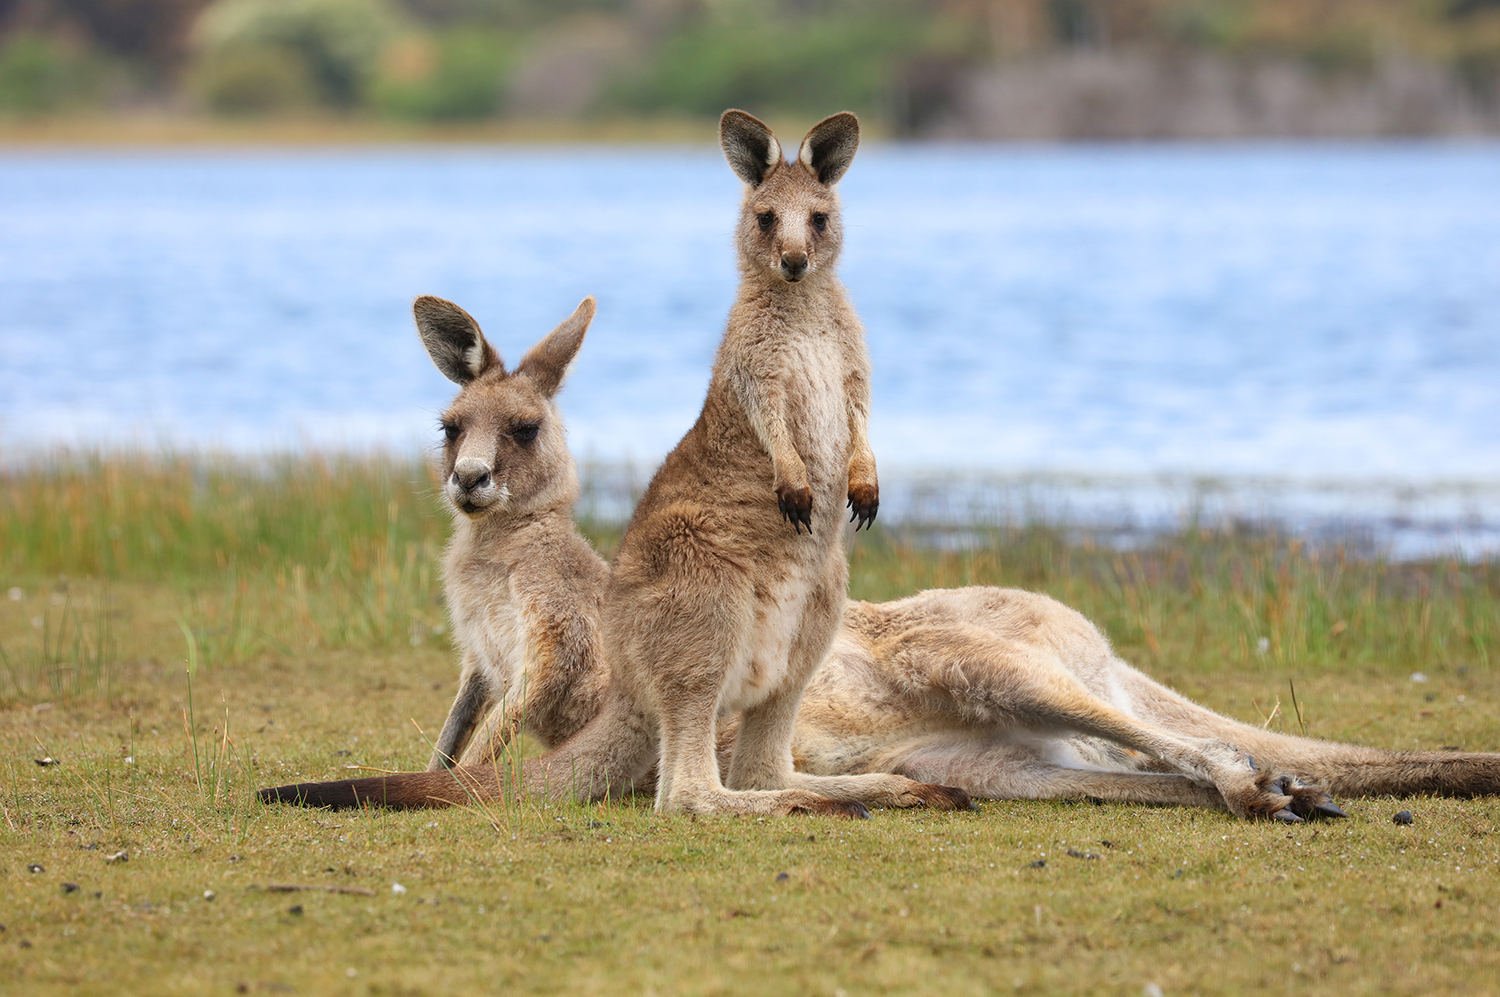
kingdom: Animalia
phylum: Chordata
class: Mammalia
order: Diprotodontia
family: Macropodidae
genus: Macropus
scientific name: Macropus giganteus
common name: Eastern grey kangaroo
